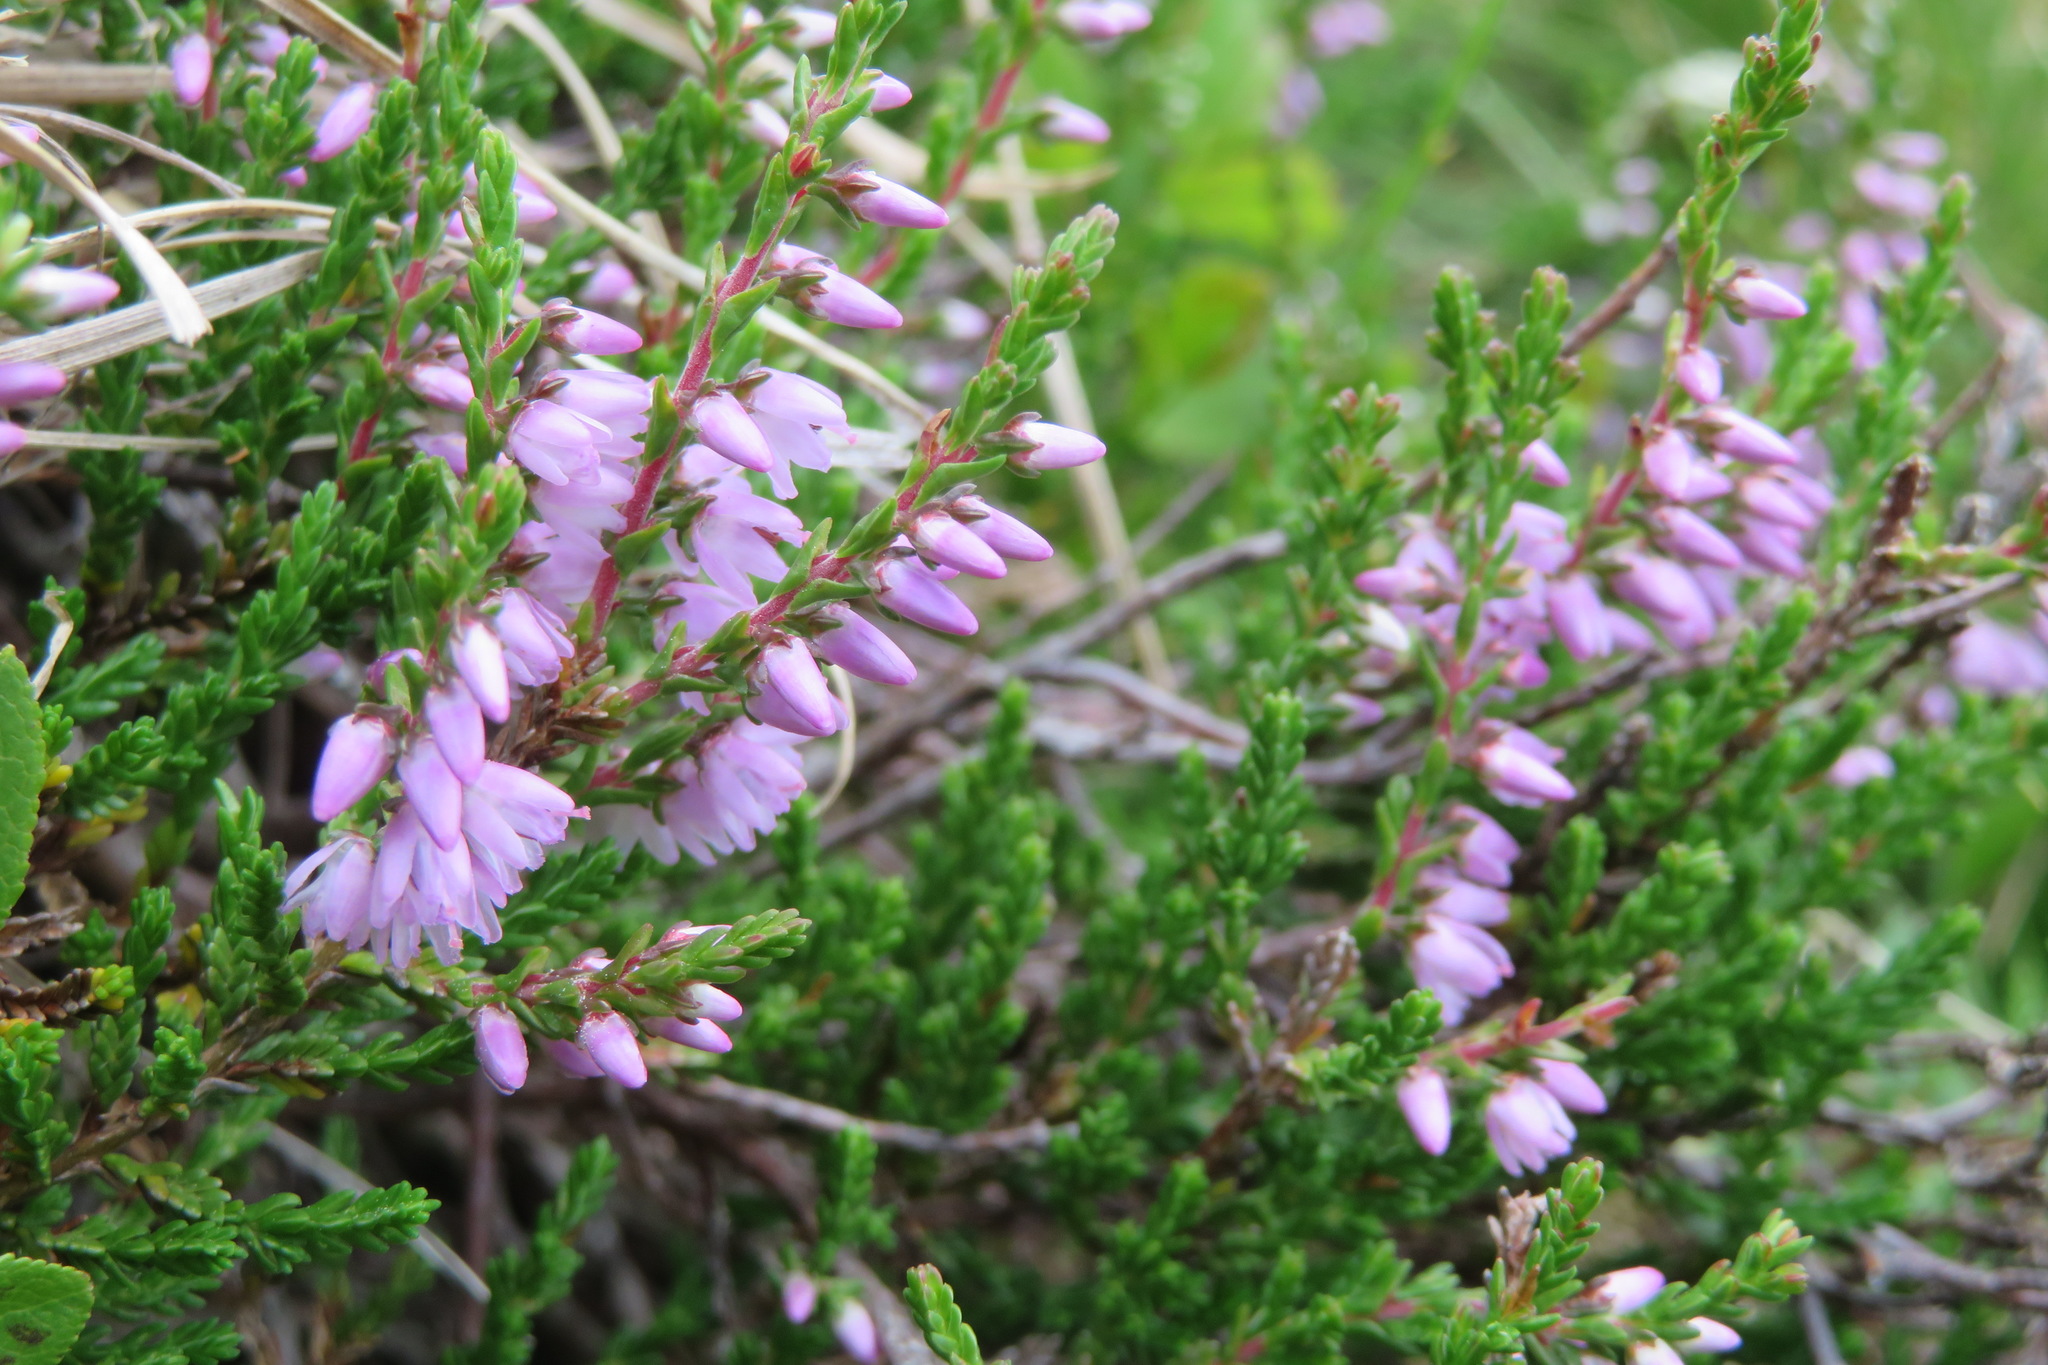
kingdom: Plantae
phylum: Tracheophyta
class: Magnoliopsida
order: Ericales
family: Ericaceae
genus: Calluna
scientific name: Calluna vulgaris
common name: Heather
